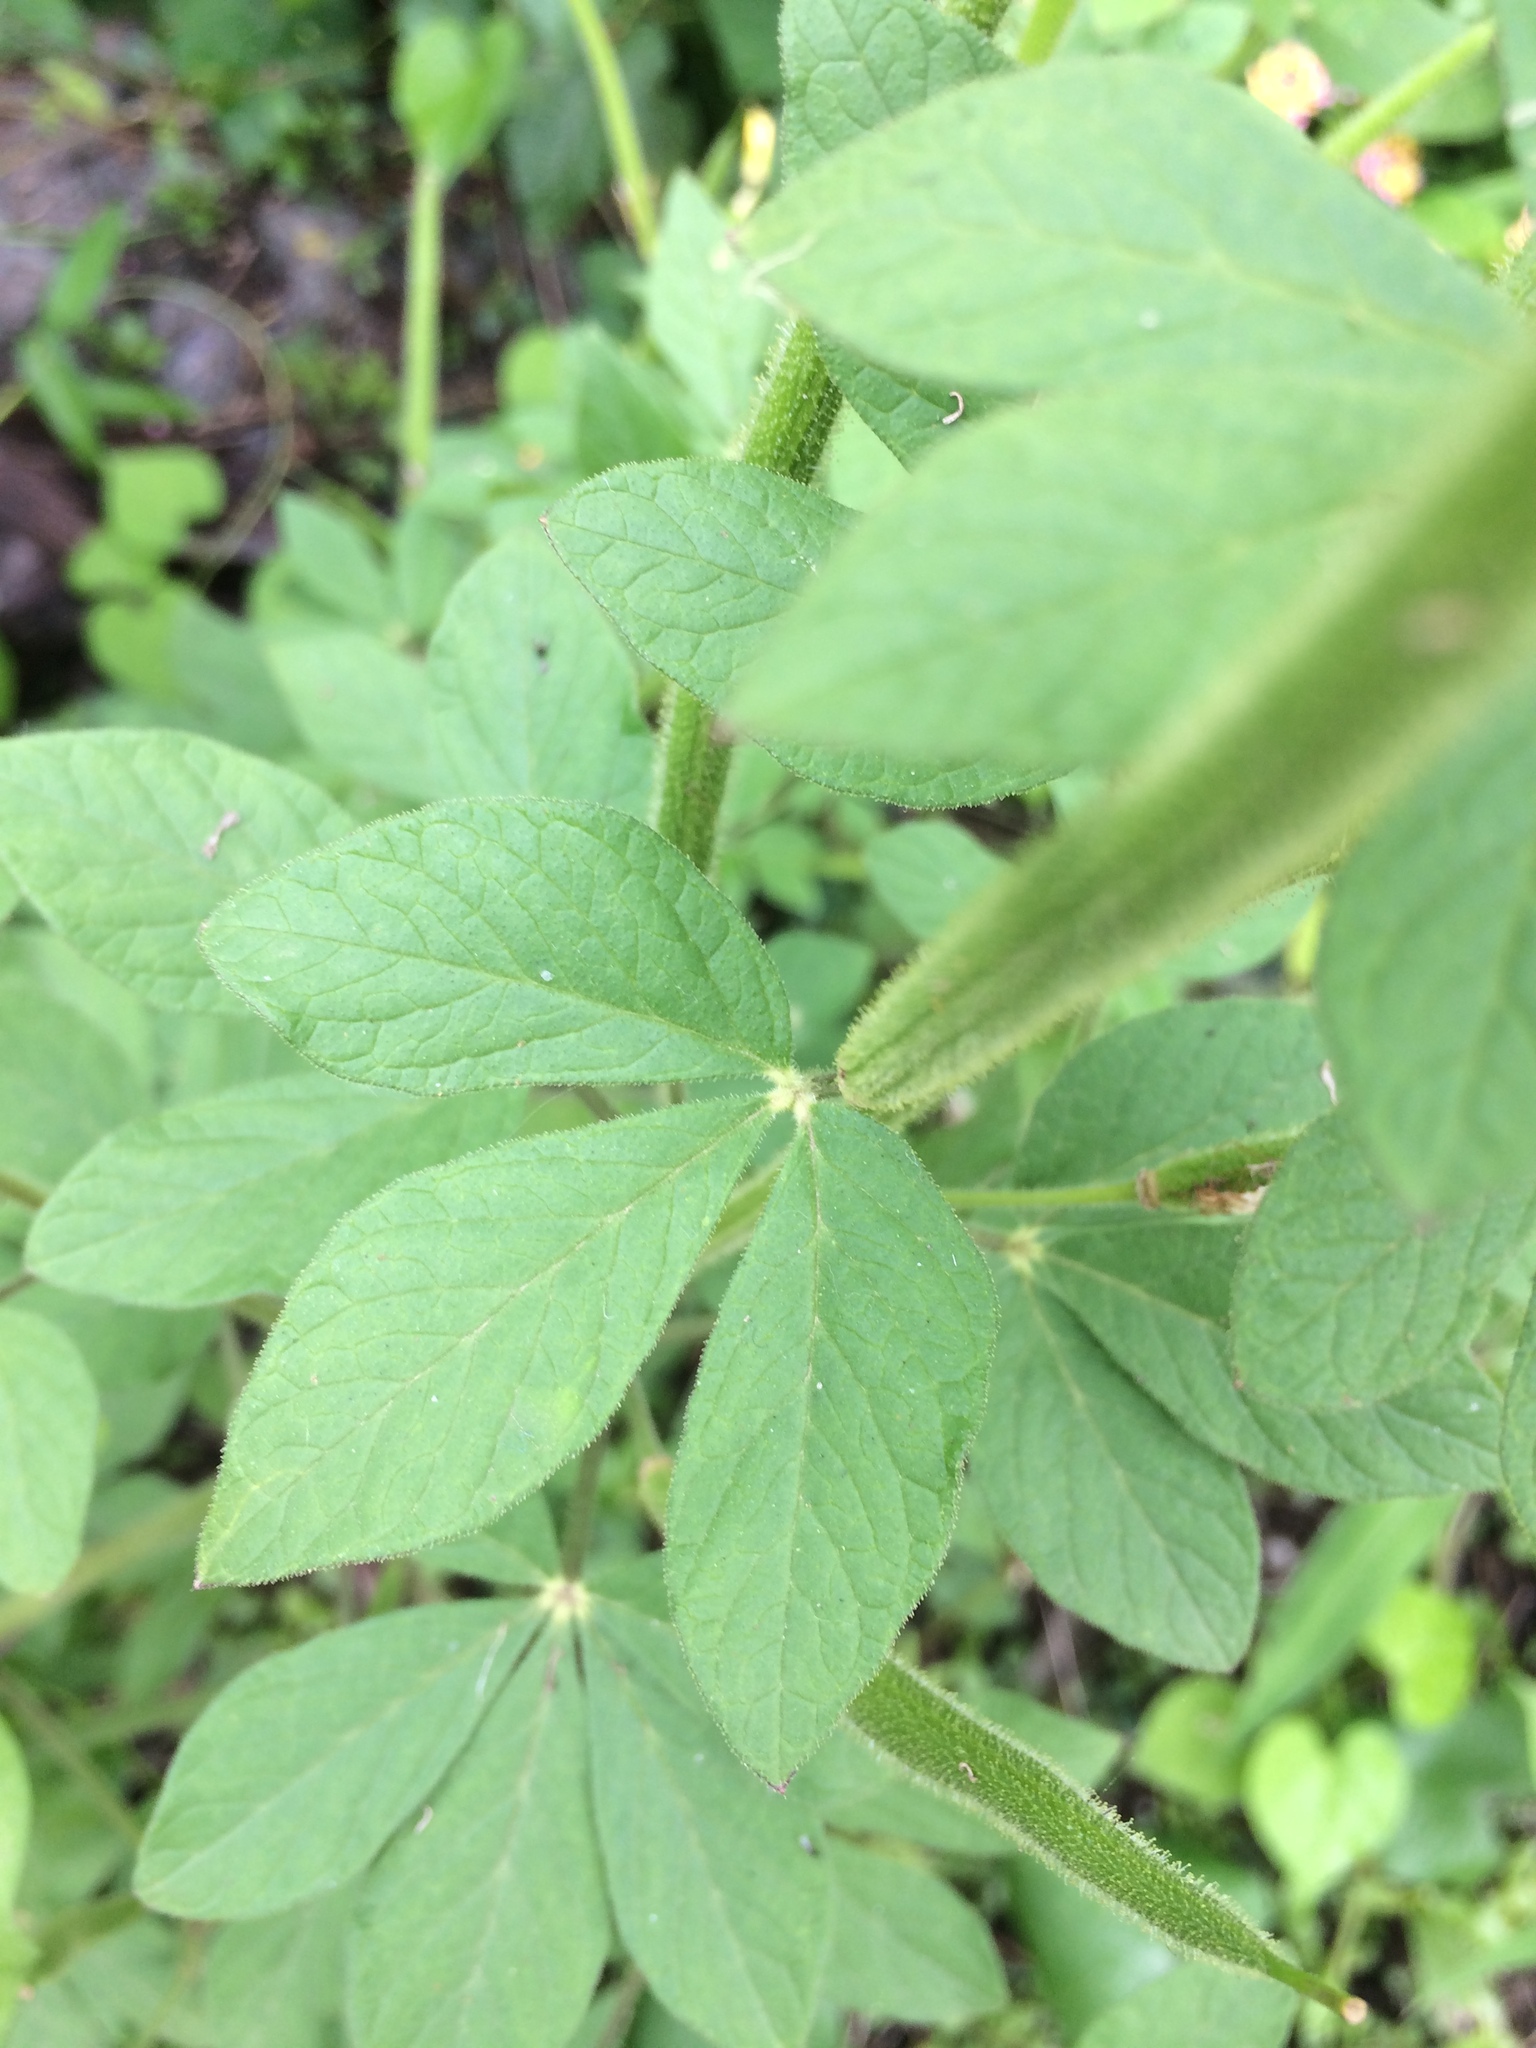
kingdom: Plantae
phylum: Tracheophyta
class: Magnoliopsida
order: Brassicales
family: Cleomaceae
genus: Arivela
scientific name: Arivela viscosa
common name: Asian spiderflower
